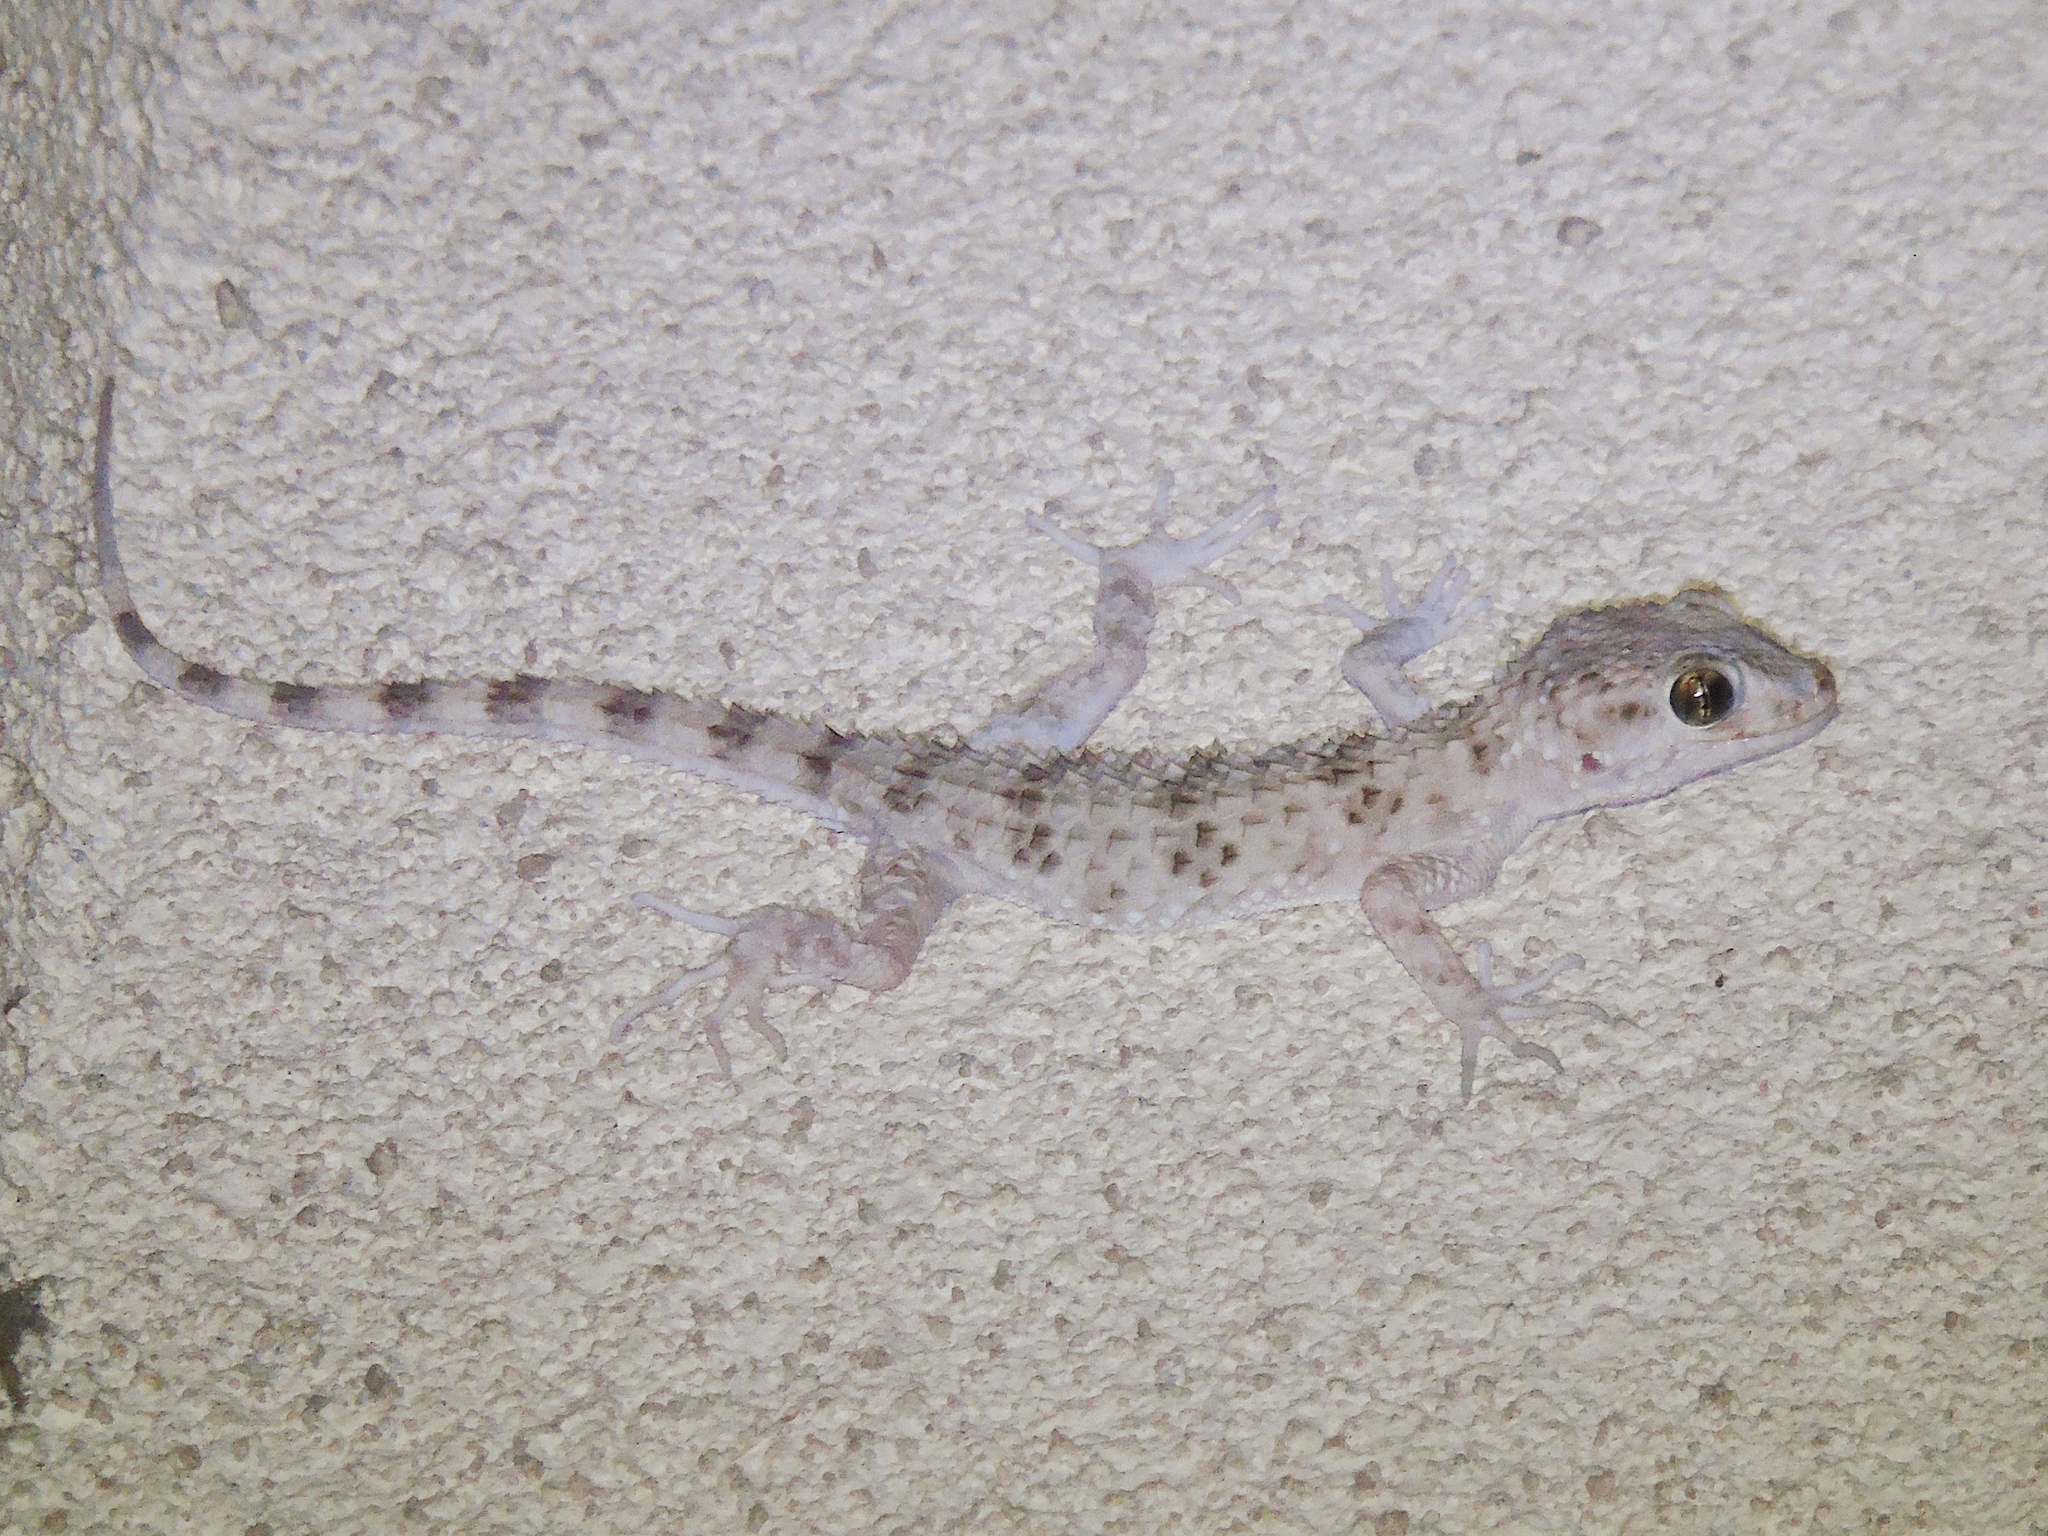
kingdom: Animalia
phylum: Chordata
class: Squamata
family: Gekkonidae
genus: Tenuidactylus
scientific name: Tenuidactylus caspius
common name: Caspian bent-toed gecko
